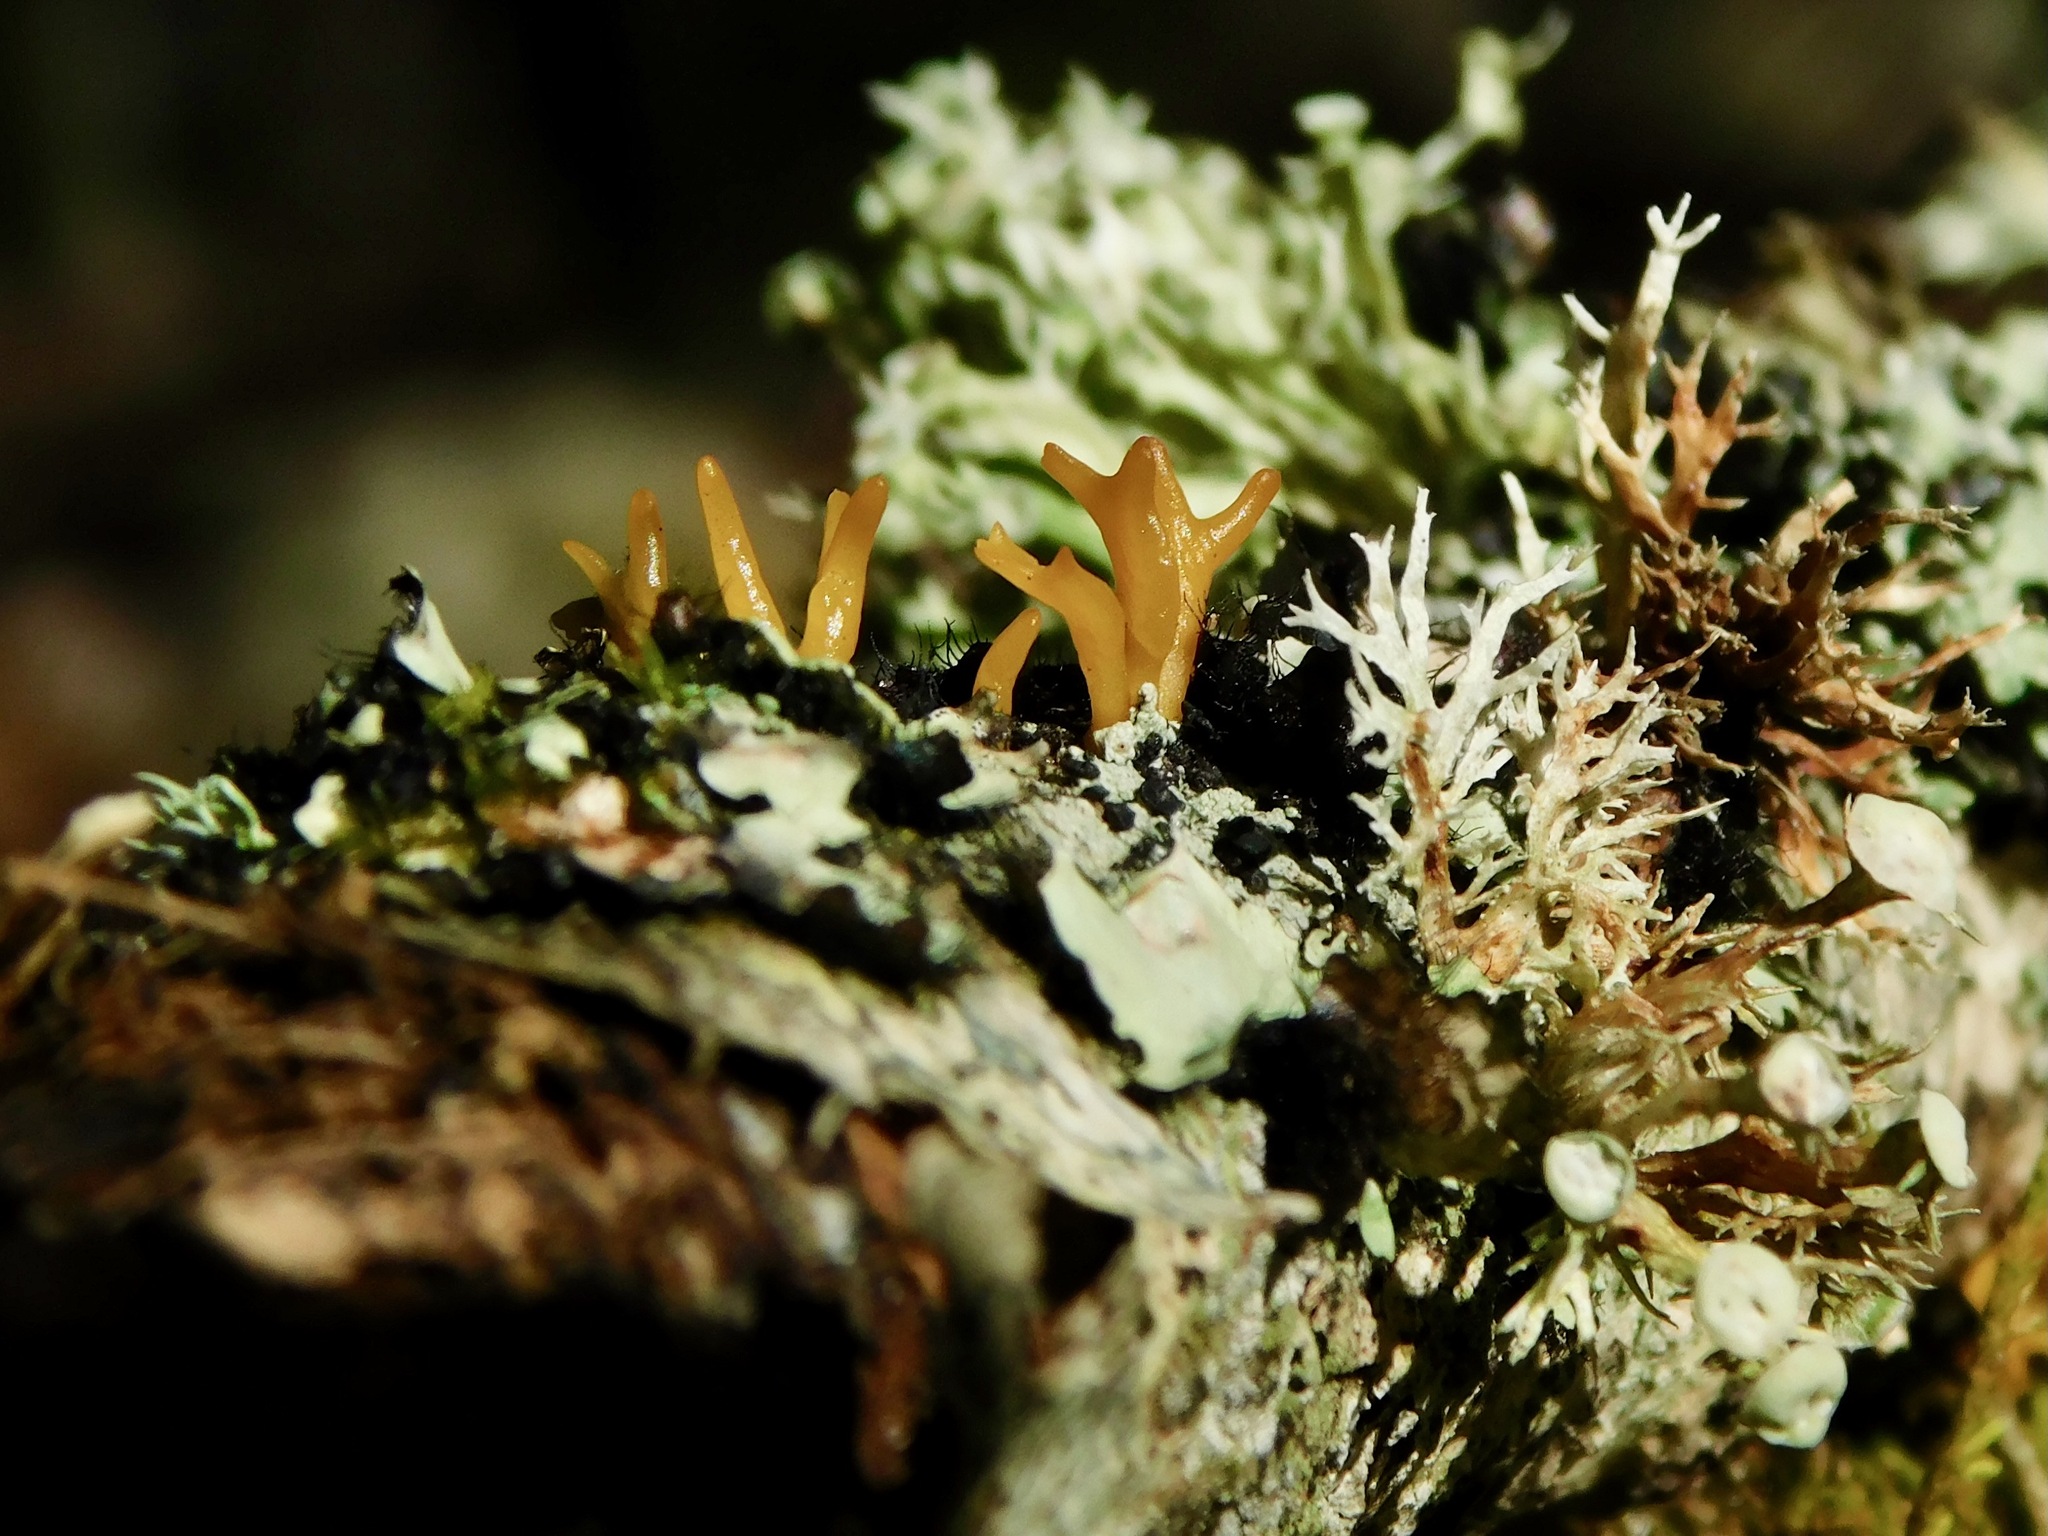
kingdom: Fungi
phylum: Basidiomycota
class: Dacrymycetes
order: Dacrymycetales
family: Dacrymycetaceae
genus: Calocera
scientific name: Calocera cornea
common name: Small stagshorn
